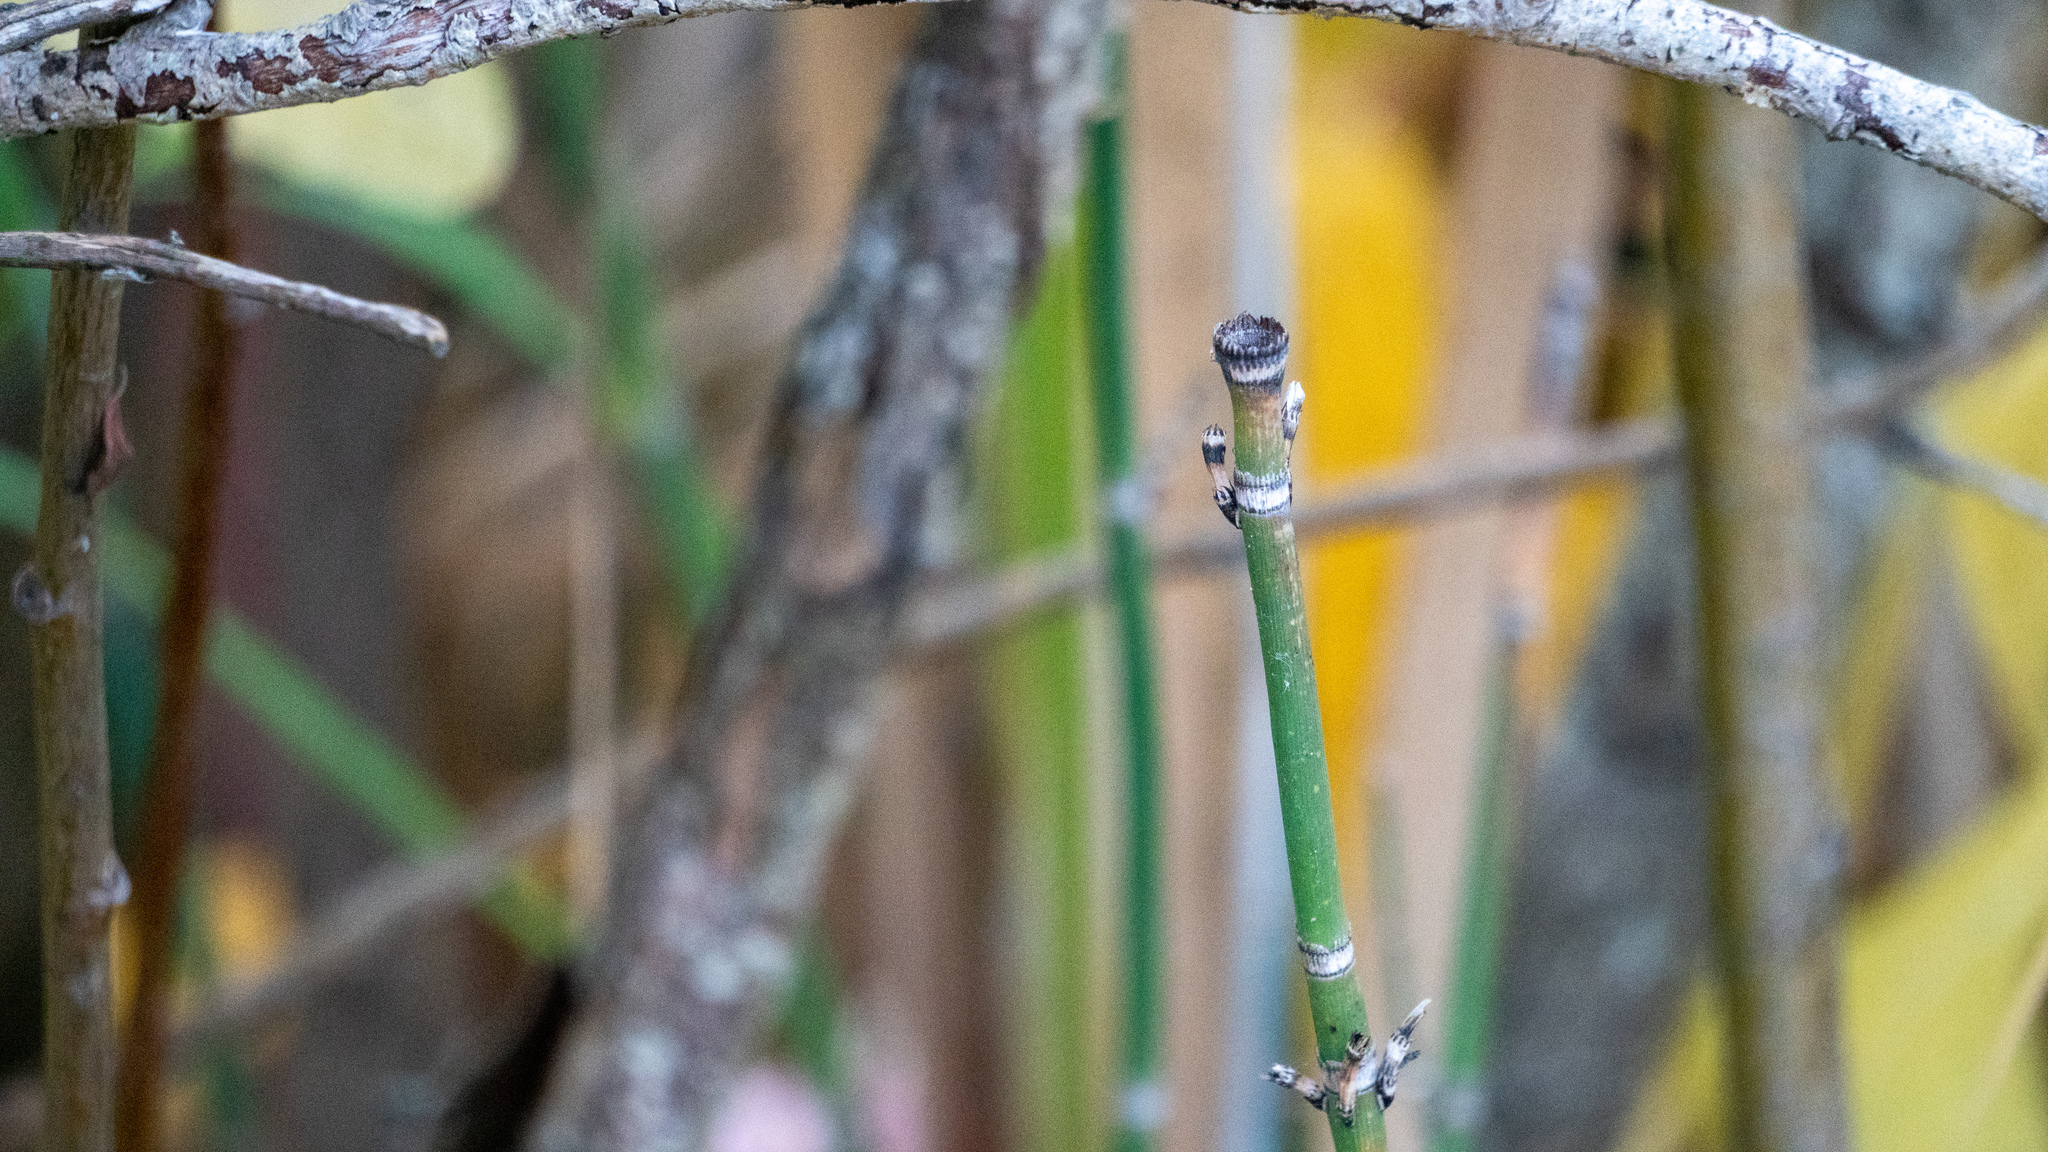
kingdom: Plantae
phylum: Tracheophyta
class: Polypodiopsida
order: Equisetales
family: Equisetaceae
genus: Equisetum
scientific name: Equisetum praealtum
